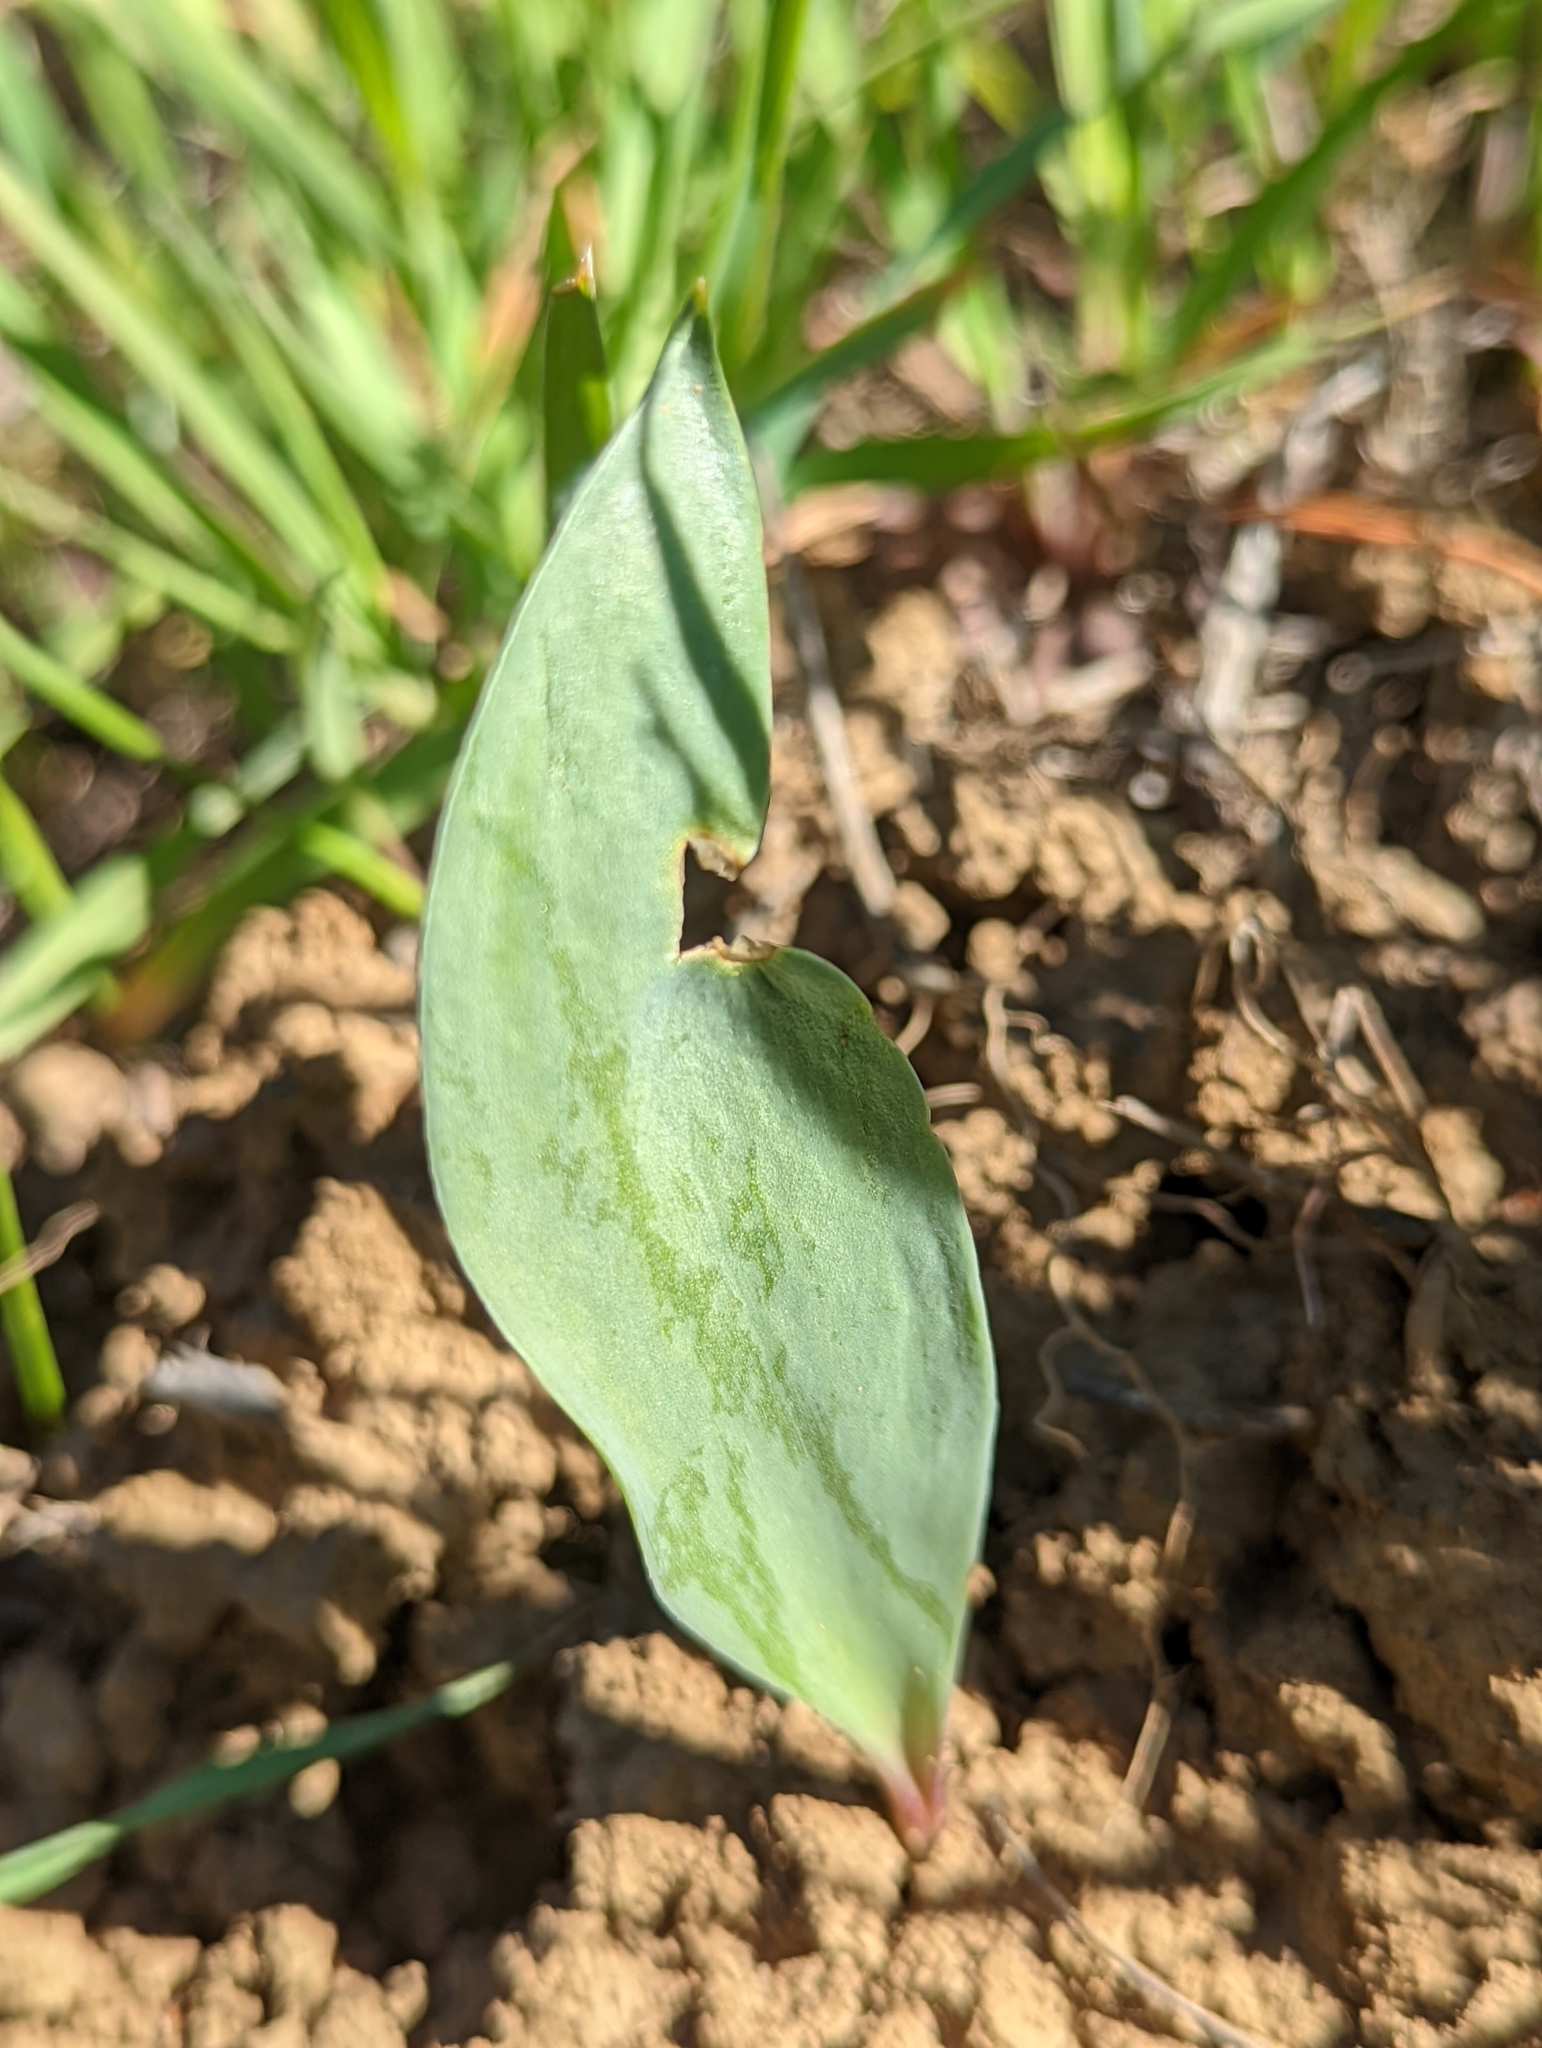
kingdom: Plantae
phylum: Tracheophyta
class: Liliopsida
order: Liliales
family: Liliaceae
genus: Fritillaria
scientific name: Fritillaria pluriflora
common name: Adobe-lily
